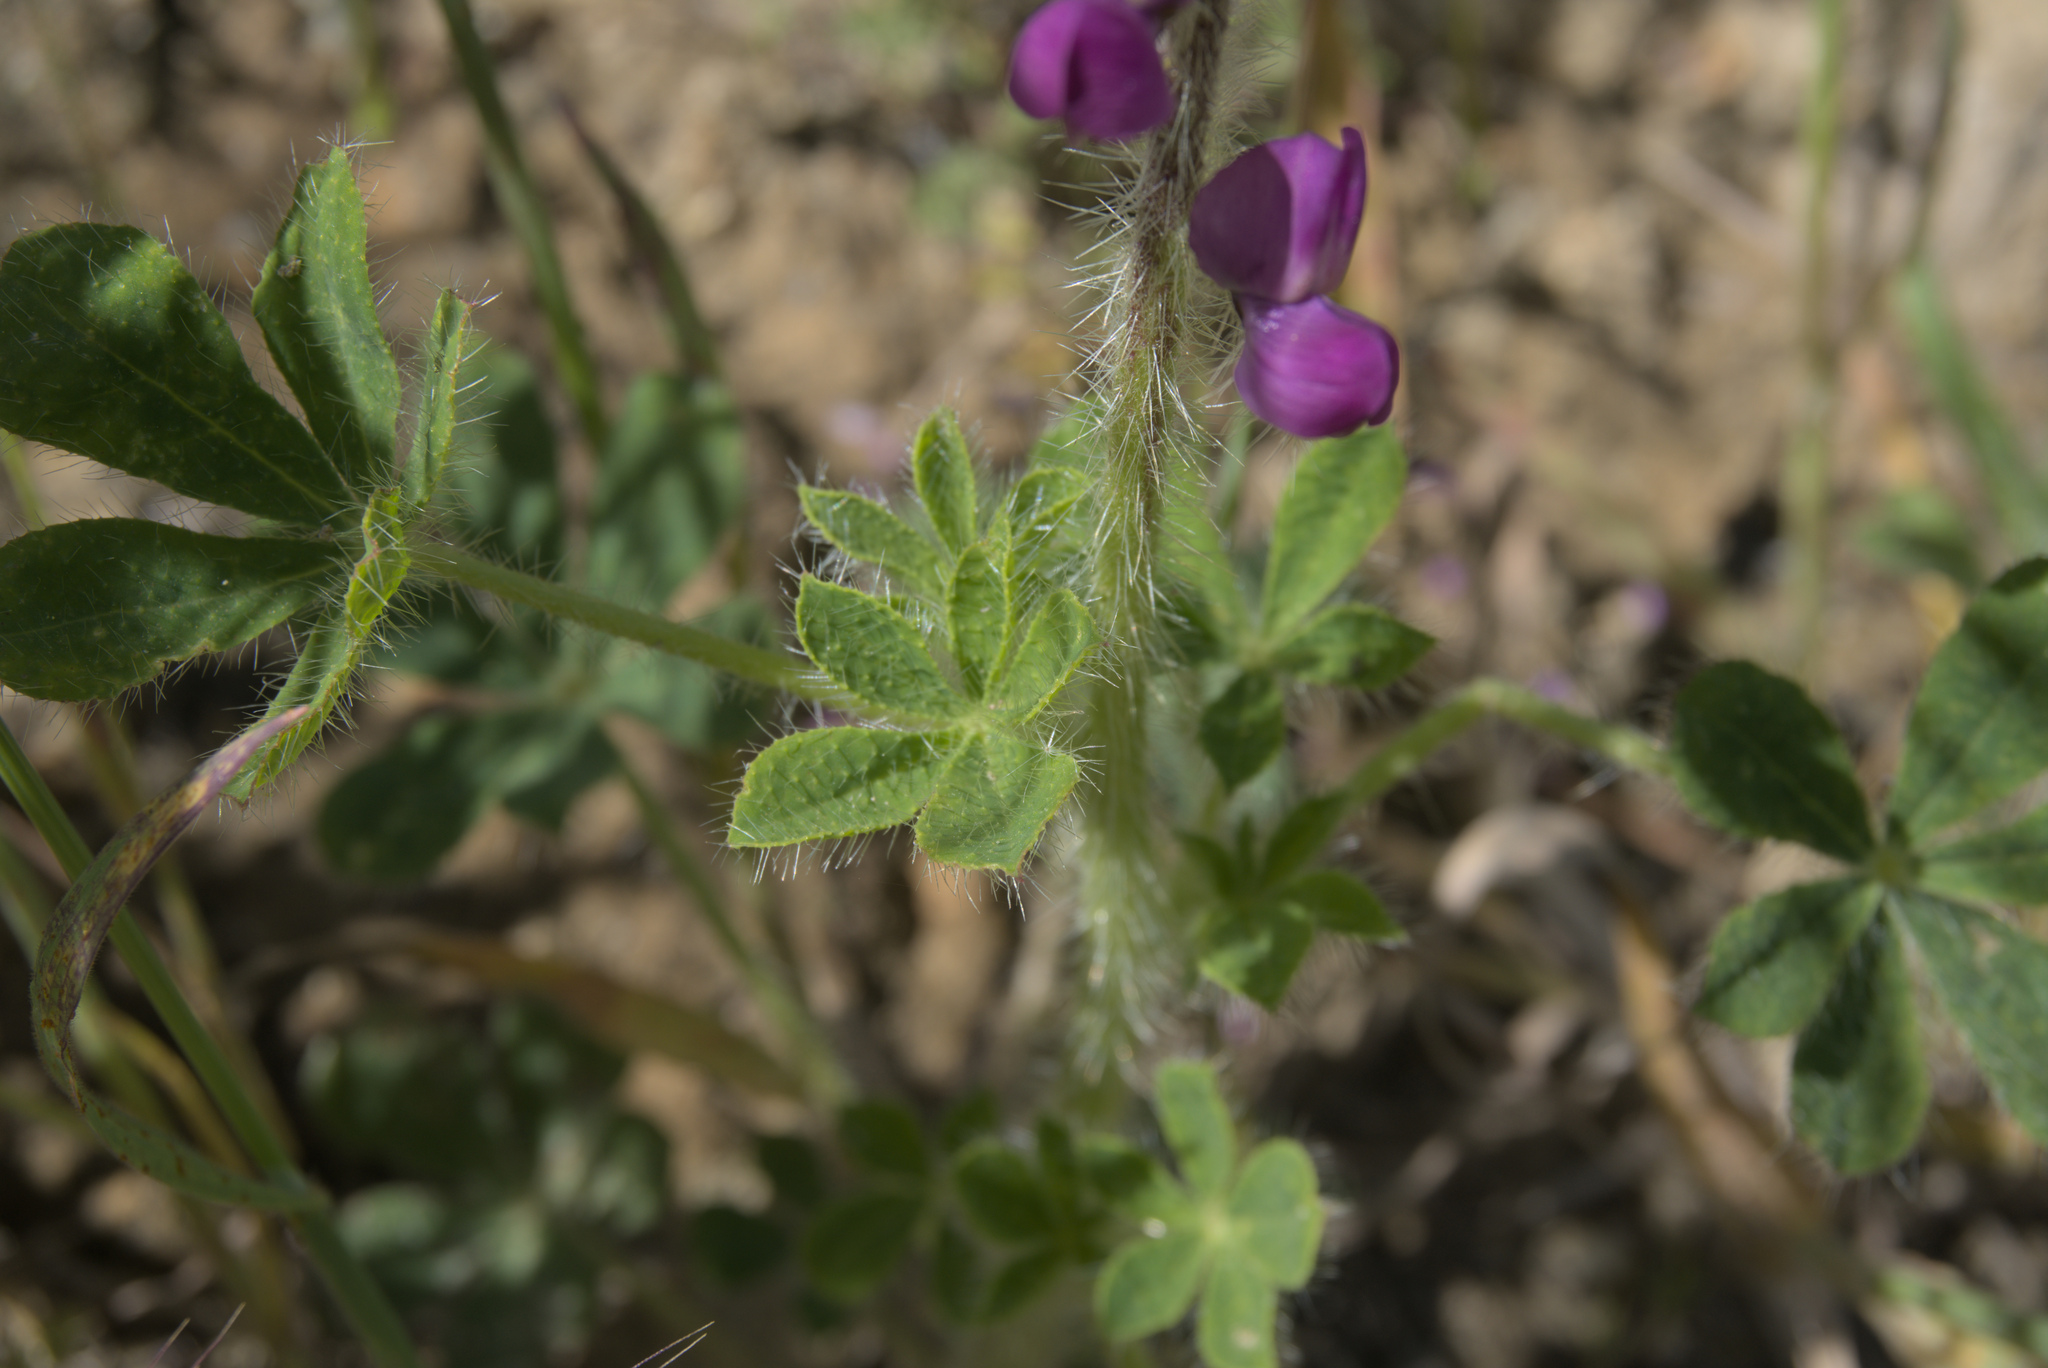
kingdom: Plantae
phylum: Tracheophyta
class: Magnoliopsida
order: Fabales
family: Fabaceae
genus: Lupinus
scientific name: Lupinus hirsutissimus
